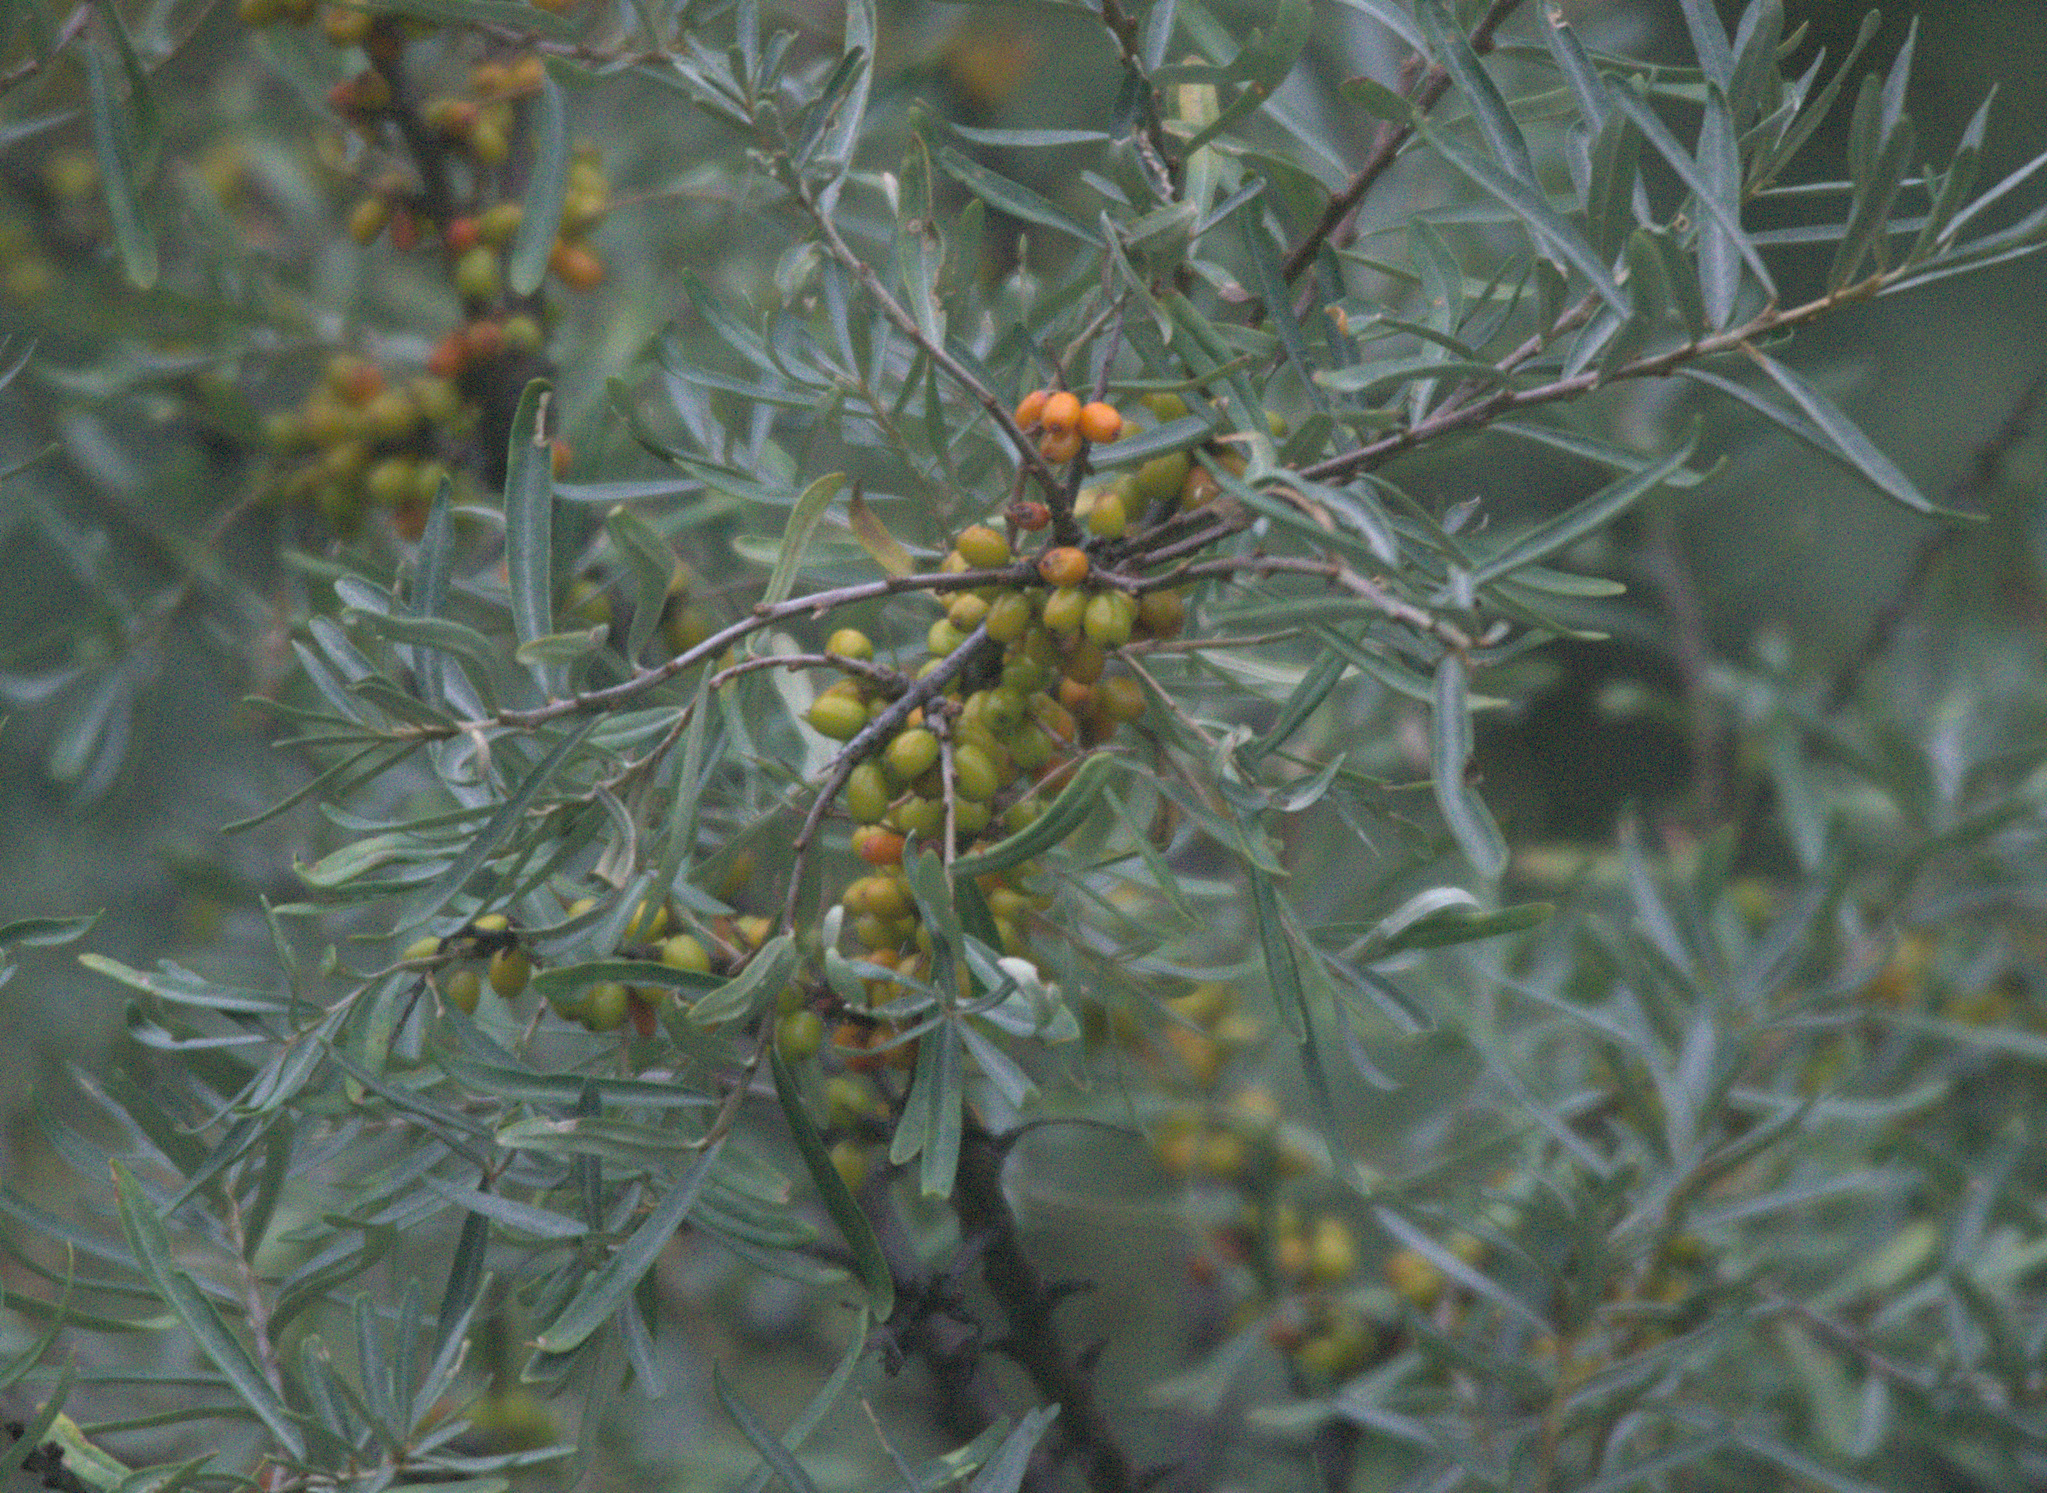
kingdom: Plantae
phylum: Tracheophyta
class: Magnoliopsida
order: Rosales
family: Elaeagnaceae
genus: Hippophae
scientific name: Hippophae rhamnoides
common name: Sea-buckthorn
